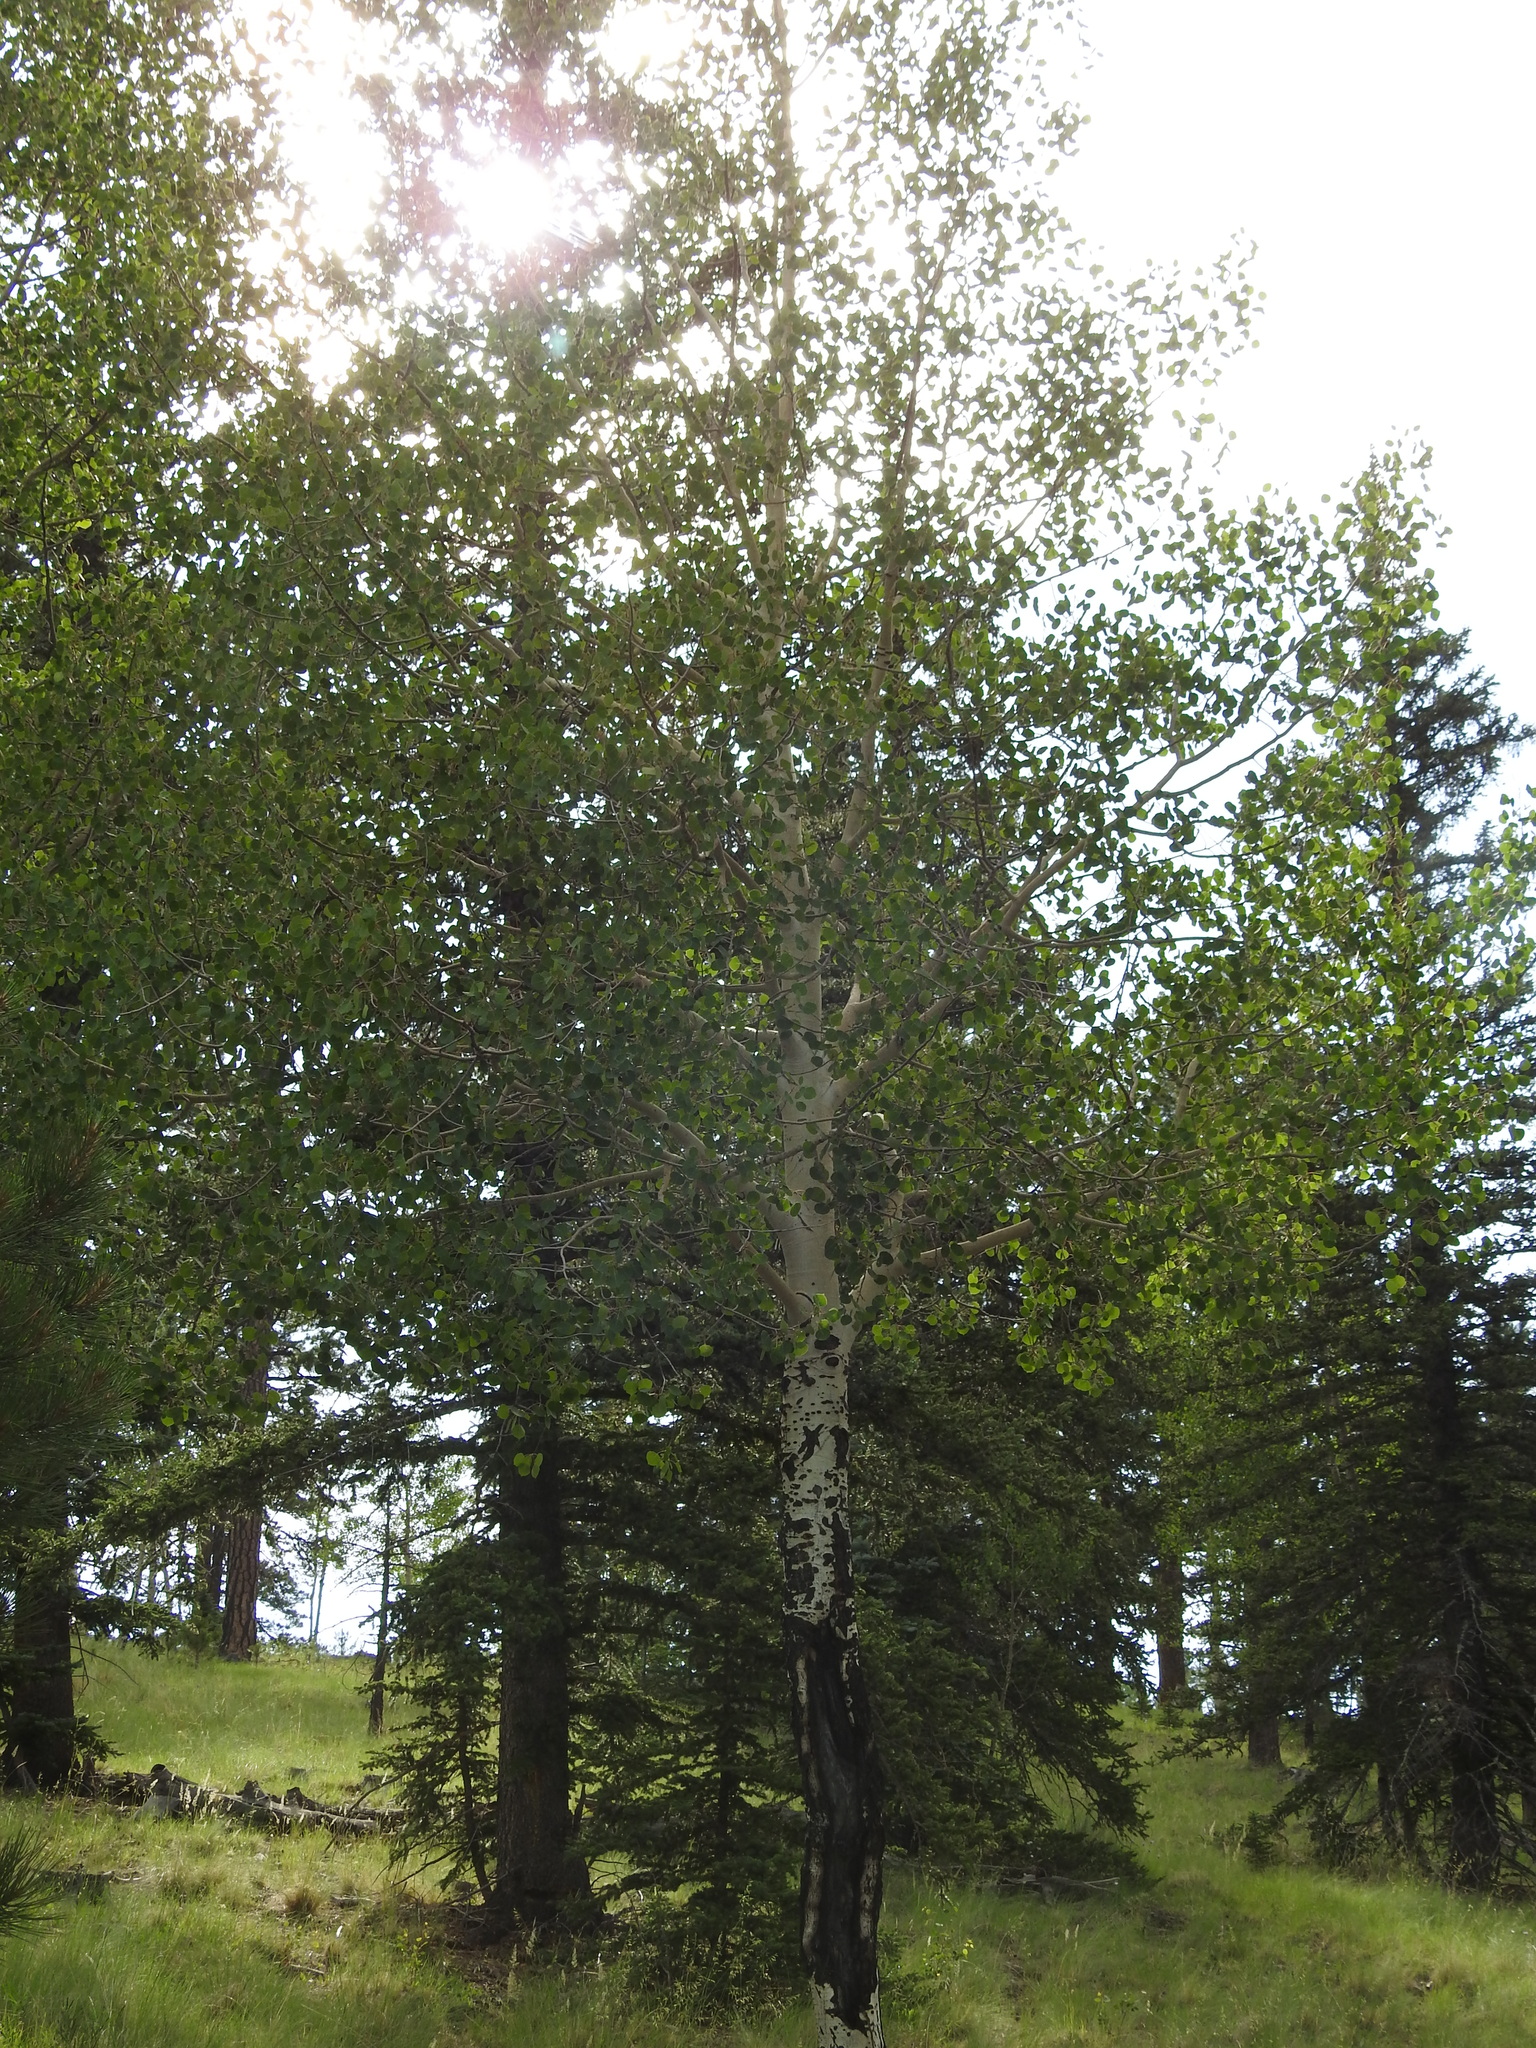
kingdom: Plantae
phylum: Tracheophyta
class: Magnoliopsida
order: Malpighiales
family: Salicaceae
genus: Populus
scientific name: Populus tremuloides
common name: Quaking aspen
